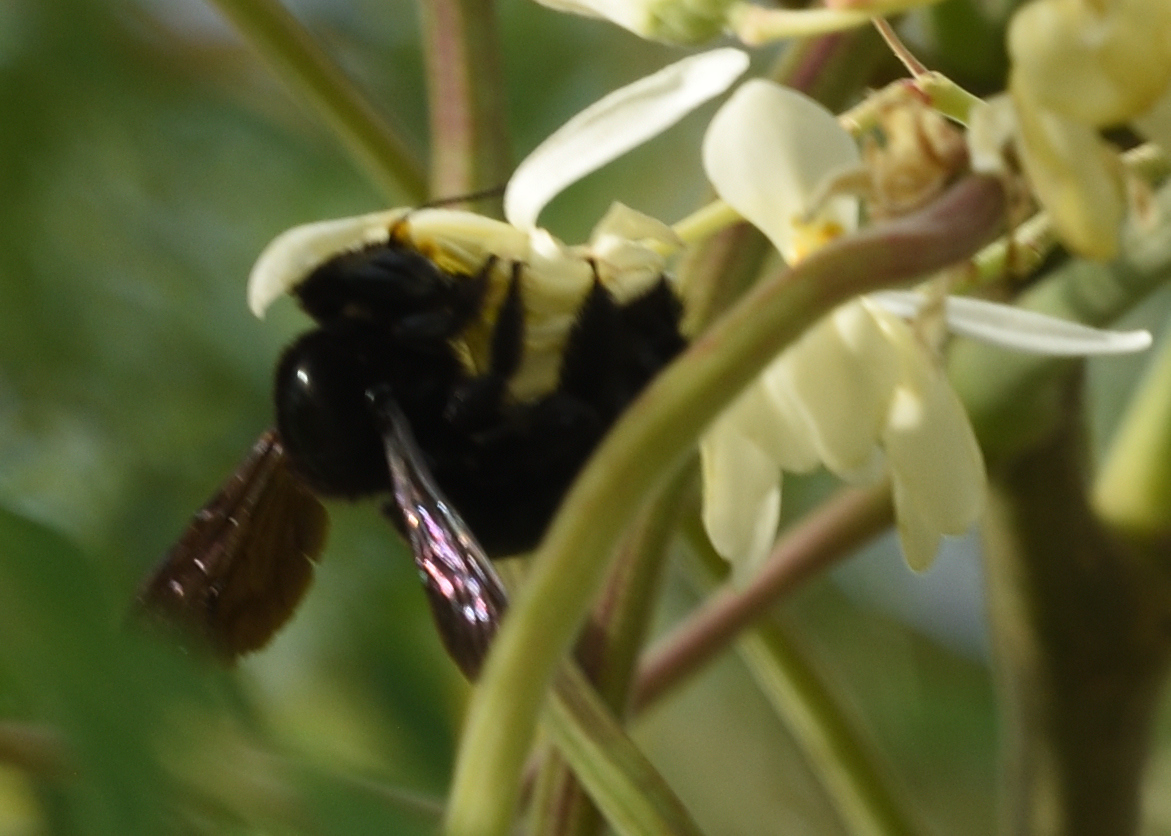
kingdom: Animalia
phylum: Arthropoda
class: Insecta
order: Hymenoptera
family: Apidae
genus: Xylocopa
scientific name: Xylocopa mordax
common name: Antillean carpenter bee
